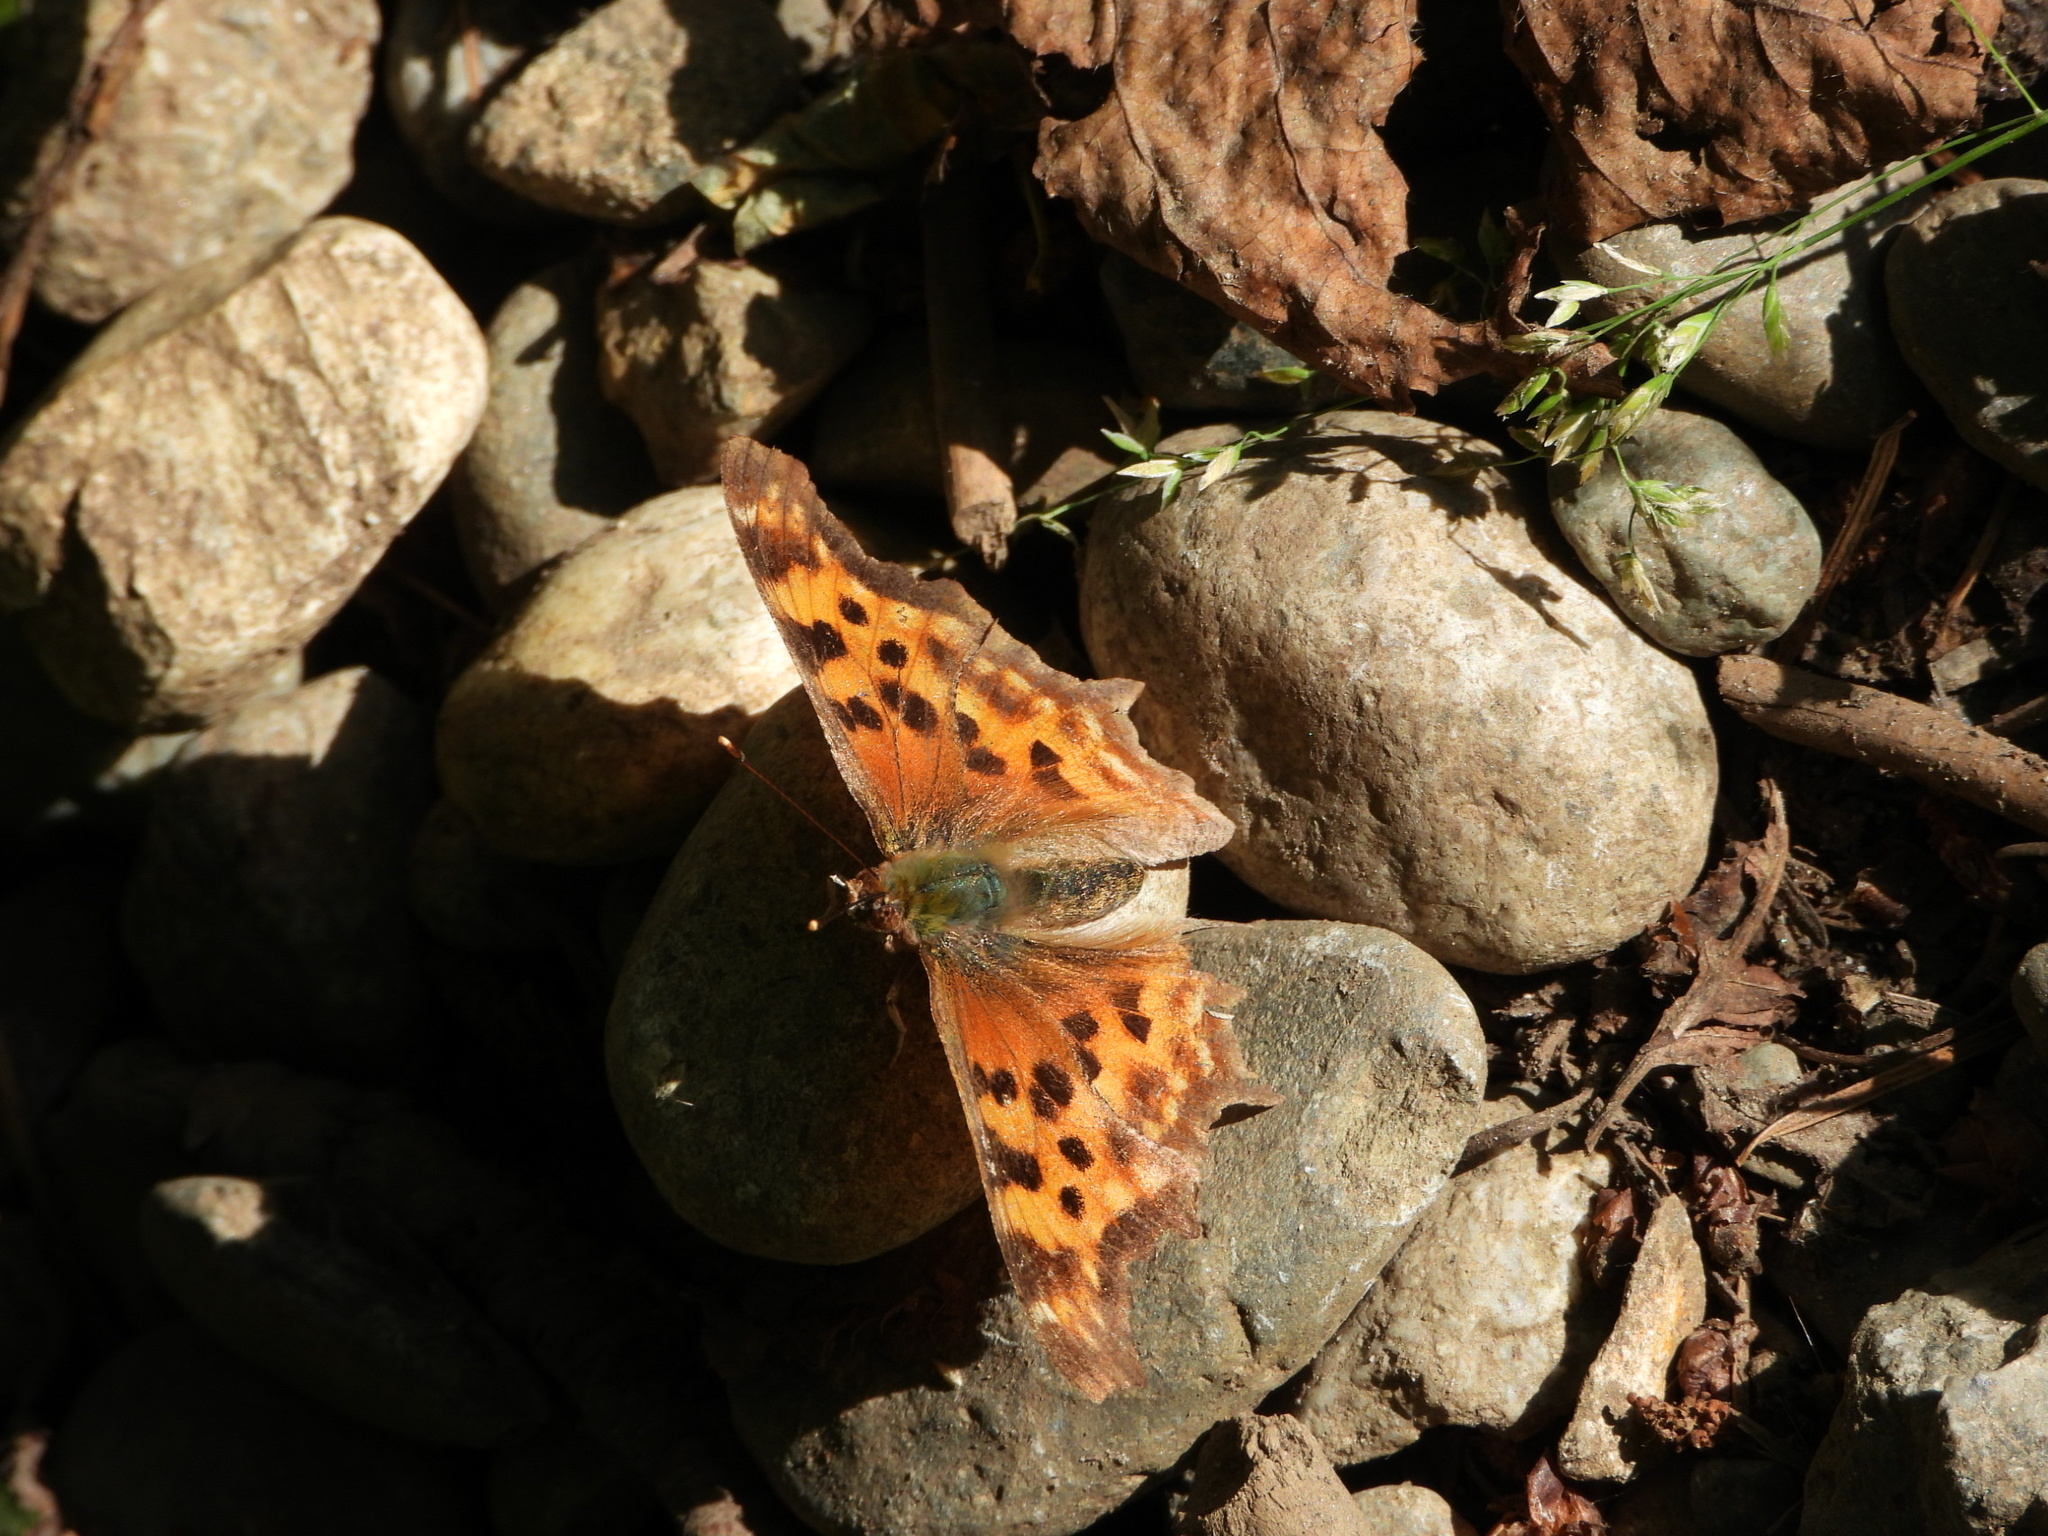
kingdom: Animalia
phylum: Arthropoda
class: Insecta
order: Lepidoptera
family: Nymphalidae
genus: Polygonia
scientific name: Polygonia satyrus
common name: Satyr angle wing
